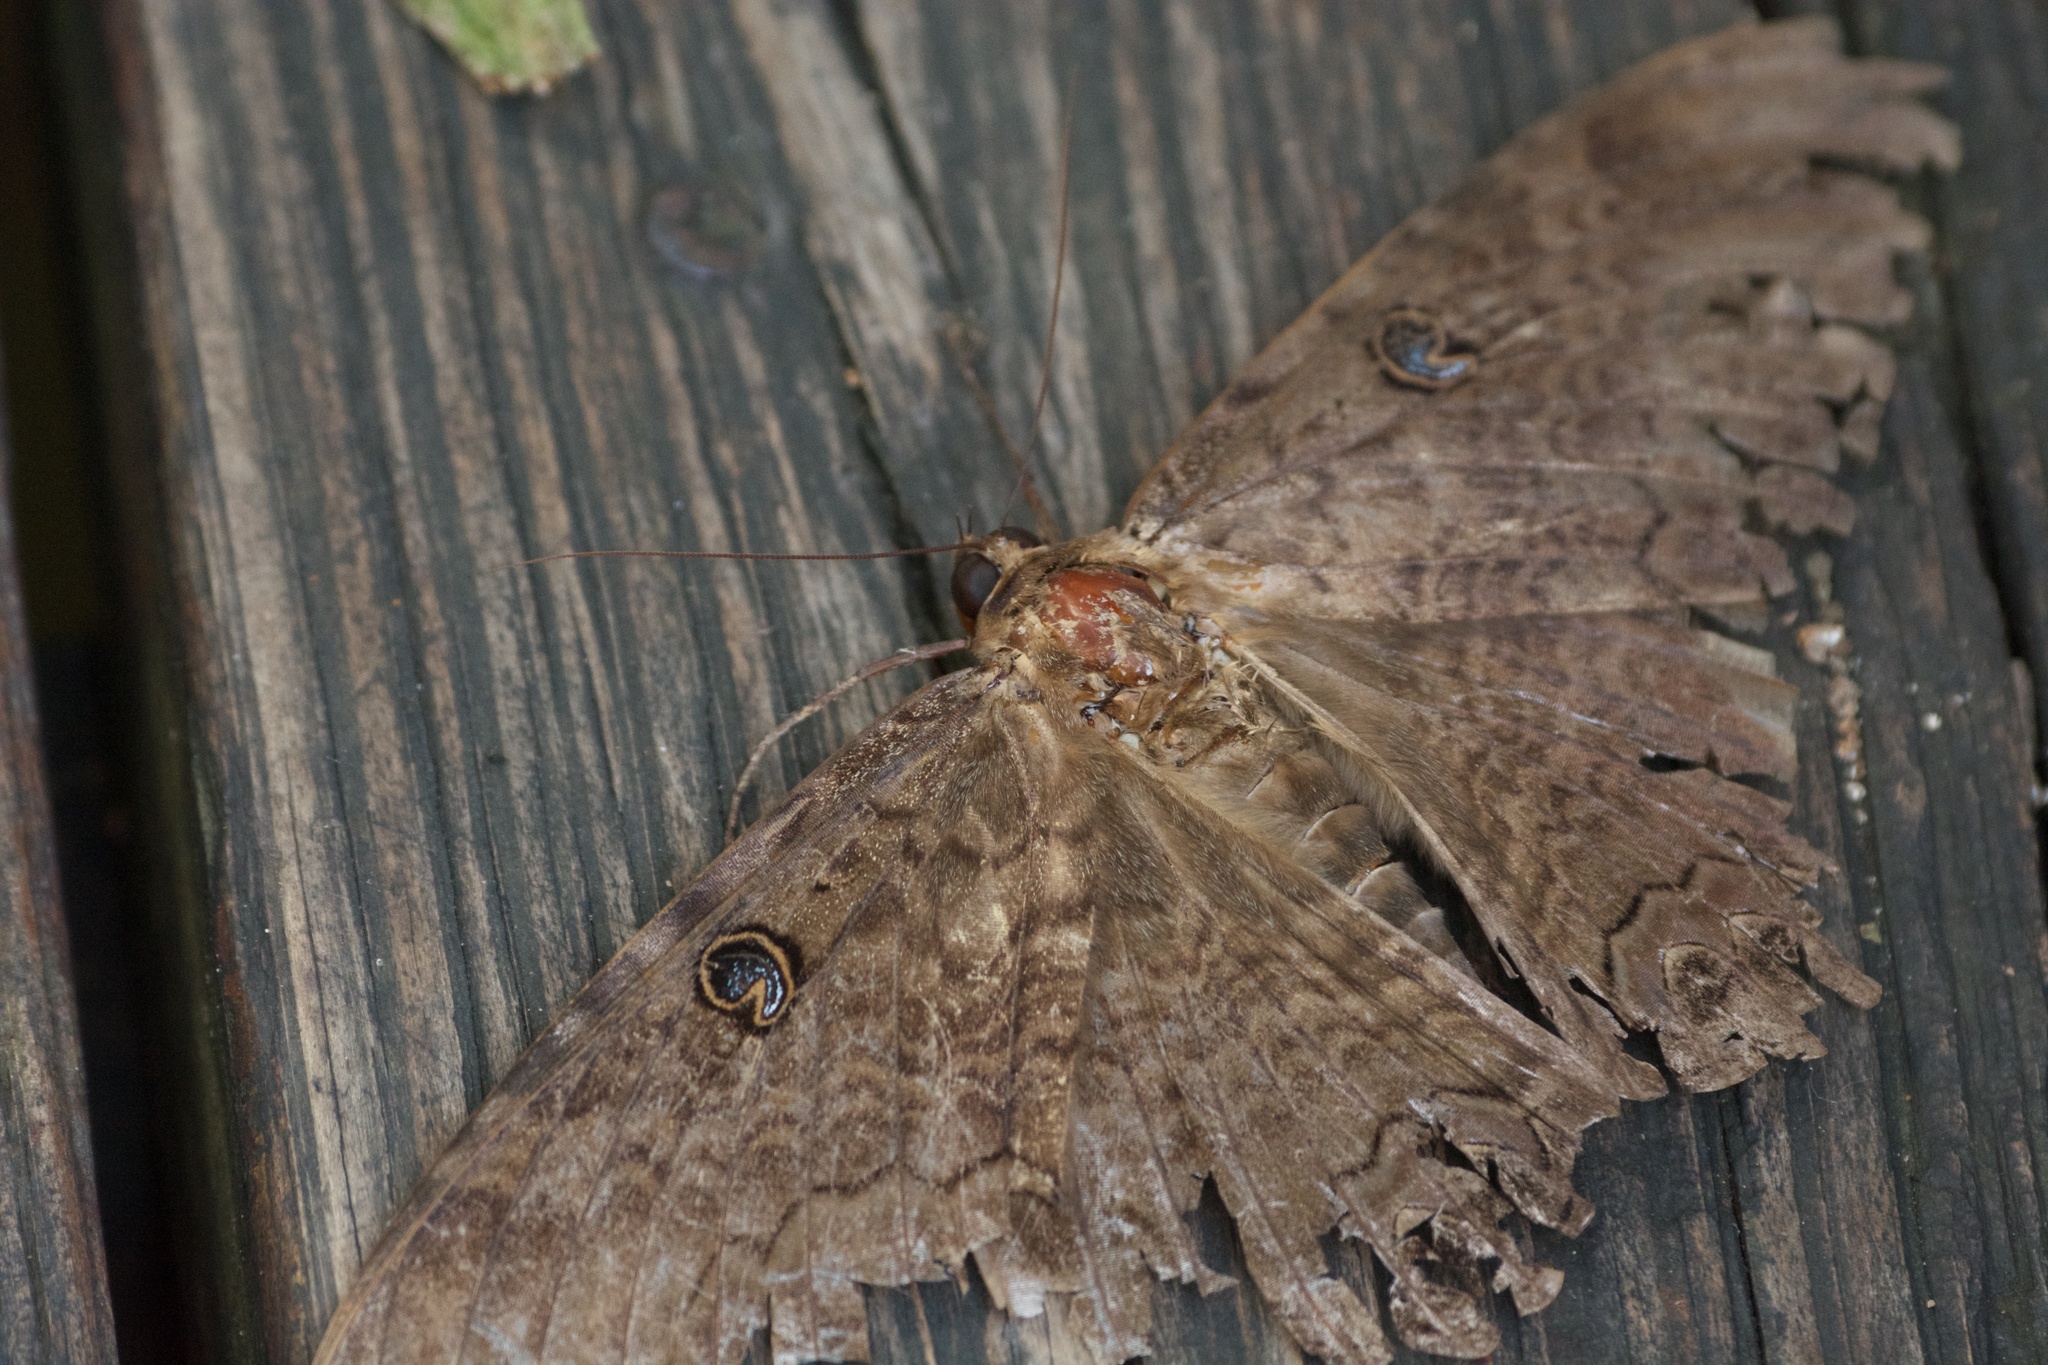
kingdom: Animalia
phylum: Arthropoda
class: Insecta
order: Lepidoptera
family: Erebidae
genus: Ascalapha
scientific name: Ascalapha odorata
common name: Black witch
